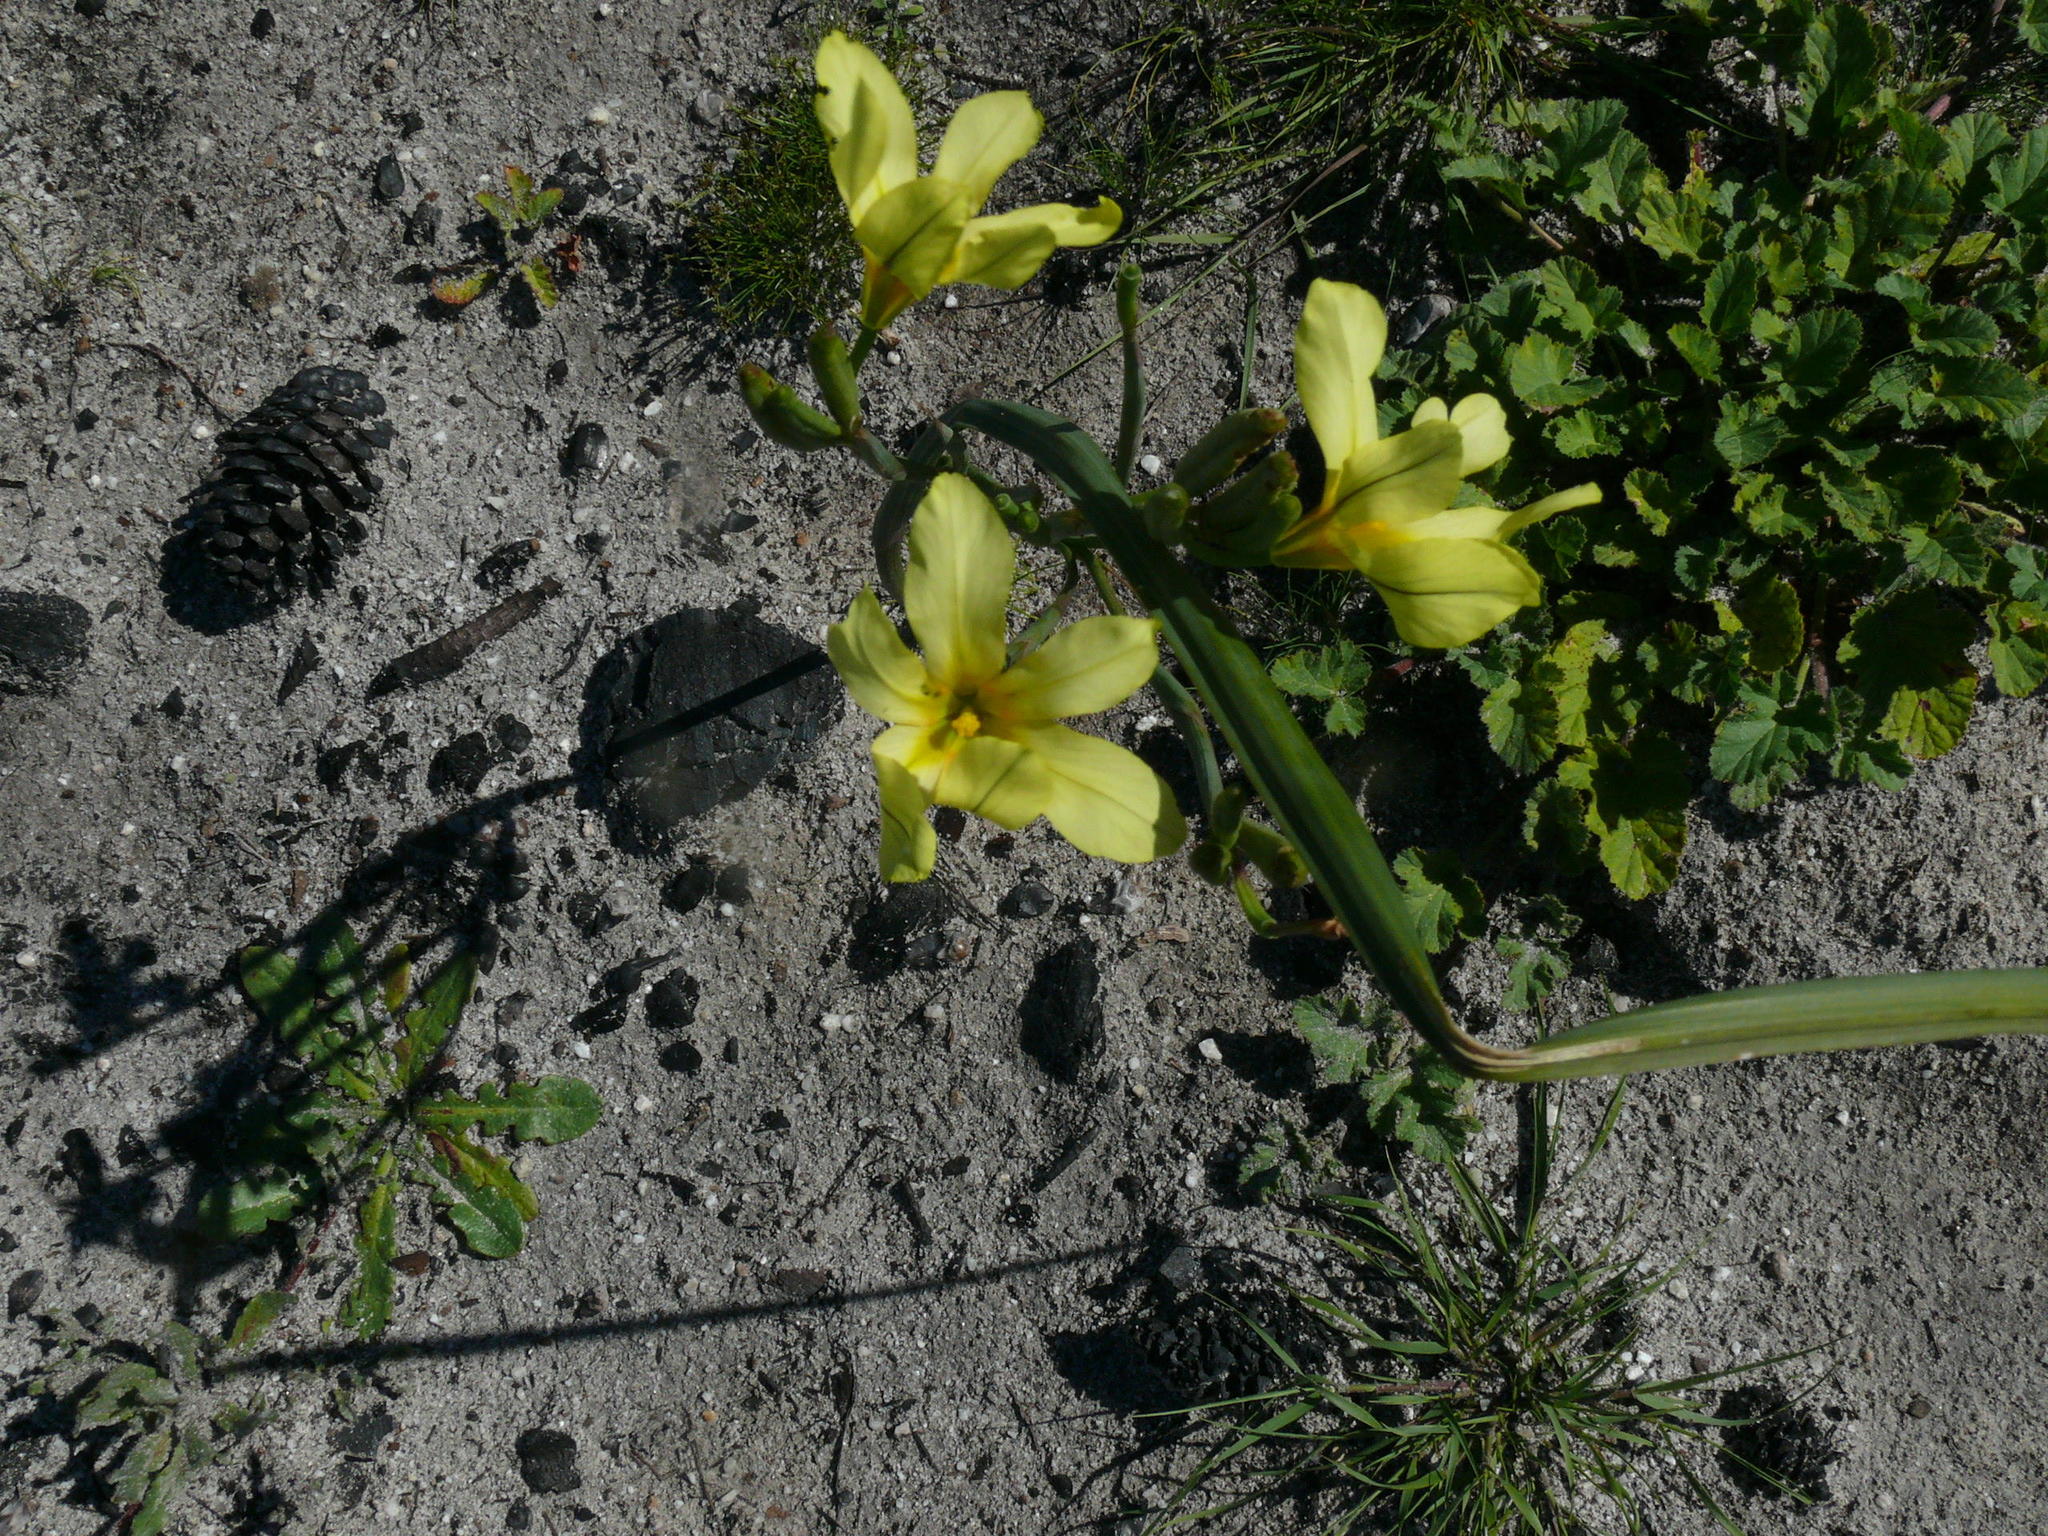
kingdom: Plantae
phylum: Tracheophyta
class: Liliopsida
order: Asparagales
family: Iridaceae
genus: Moraea
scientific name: Moraea ochroleuca
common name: Red tulp
